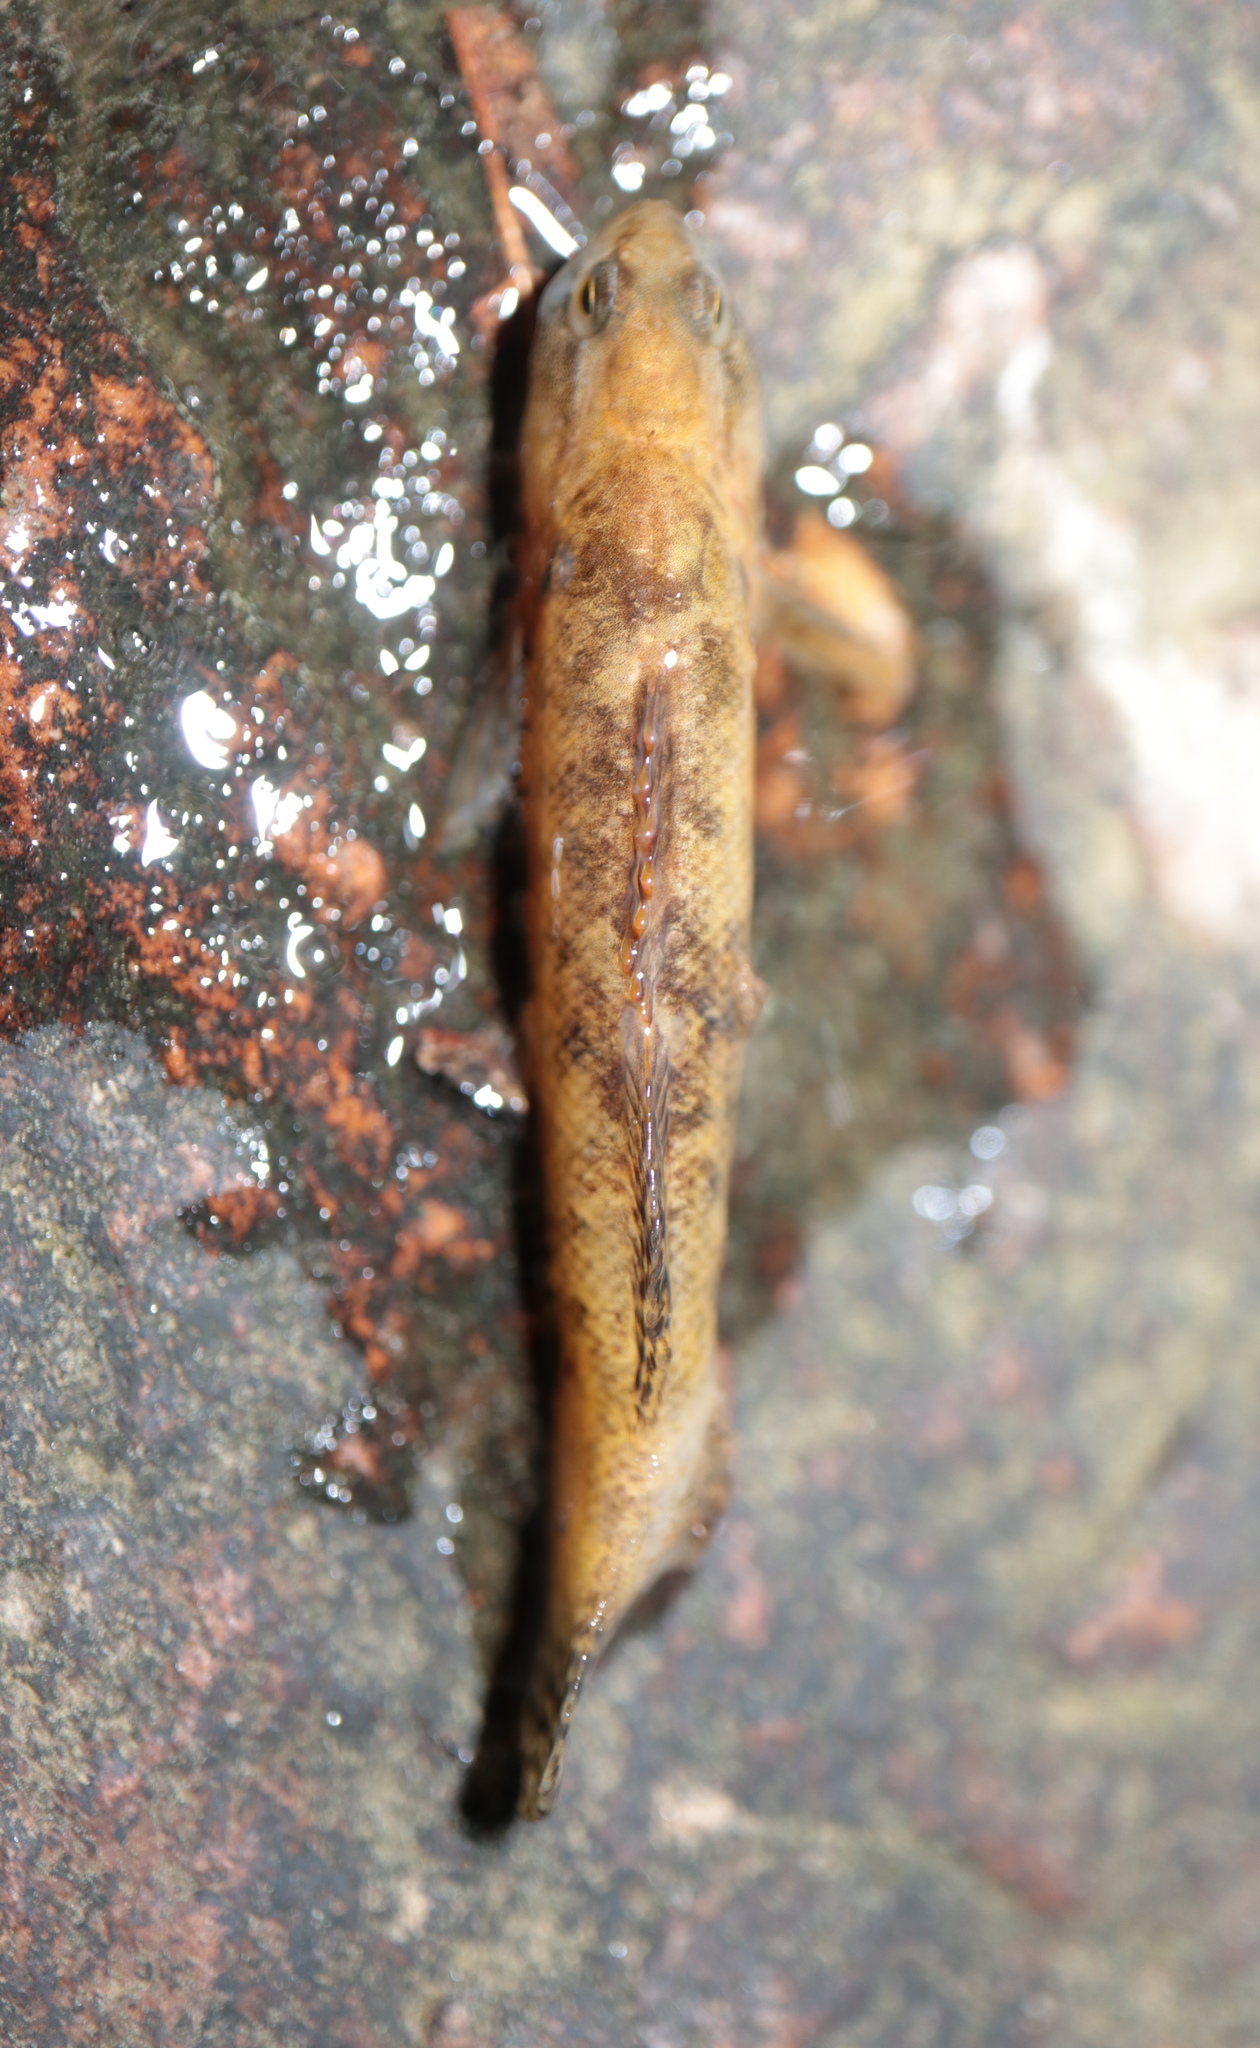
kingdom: Animalia
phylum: Chordata
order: Perciformes
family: Percidae
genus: Etheostoma
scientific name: Etheostoma flabellare
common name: Fantail darter
